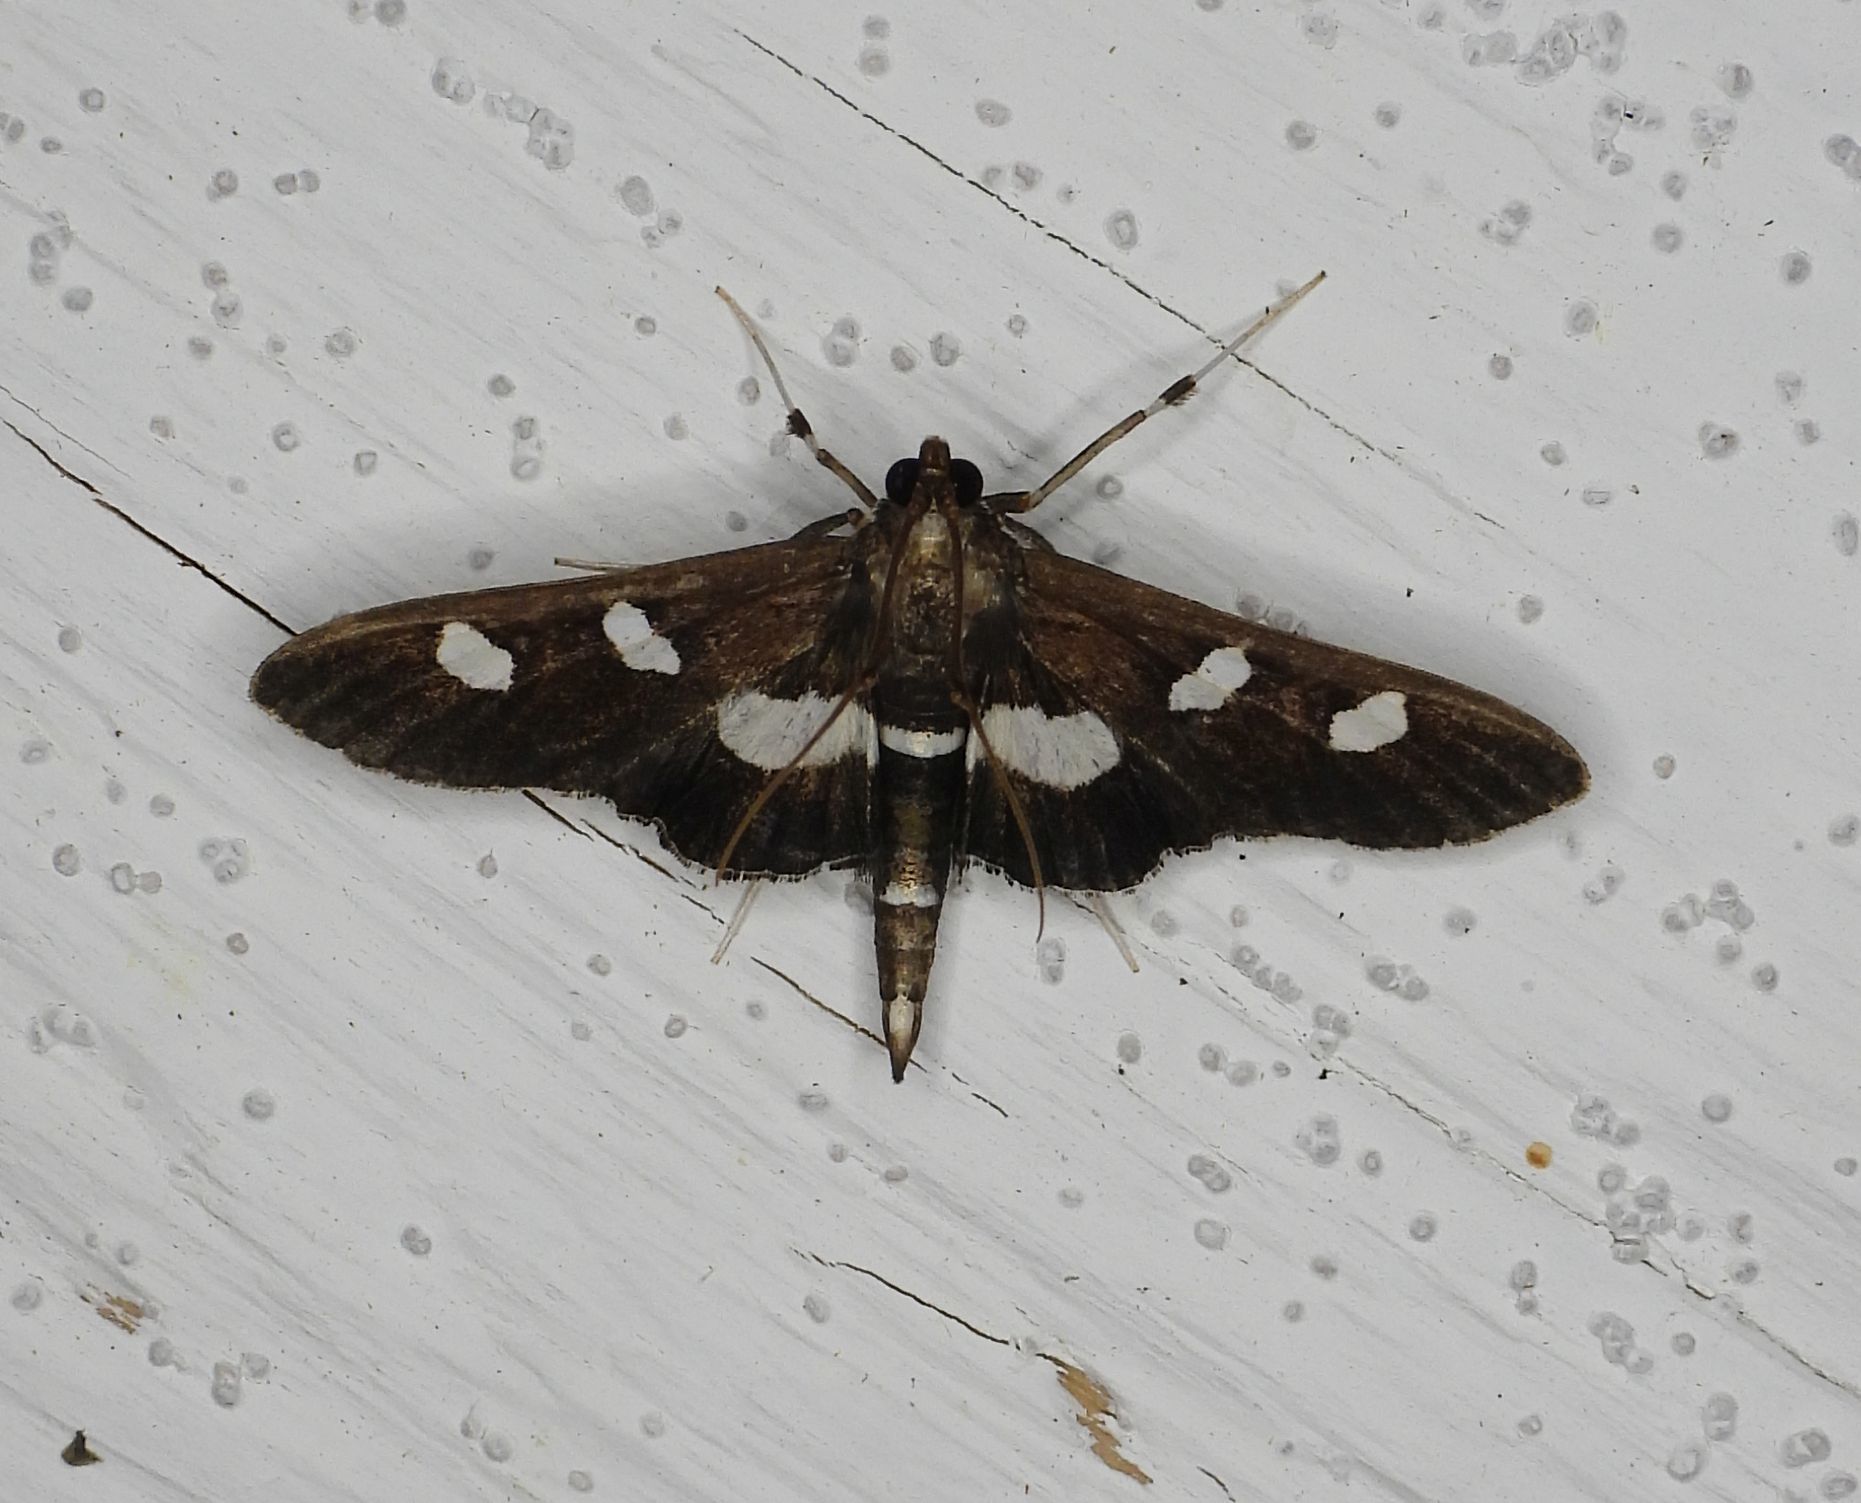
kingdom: Animalia
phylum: Arthropoda
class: Insecta
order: Lepidoptera
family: Crambidae
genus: Desmia
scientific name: Desmia
